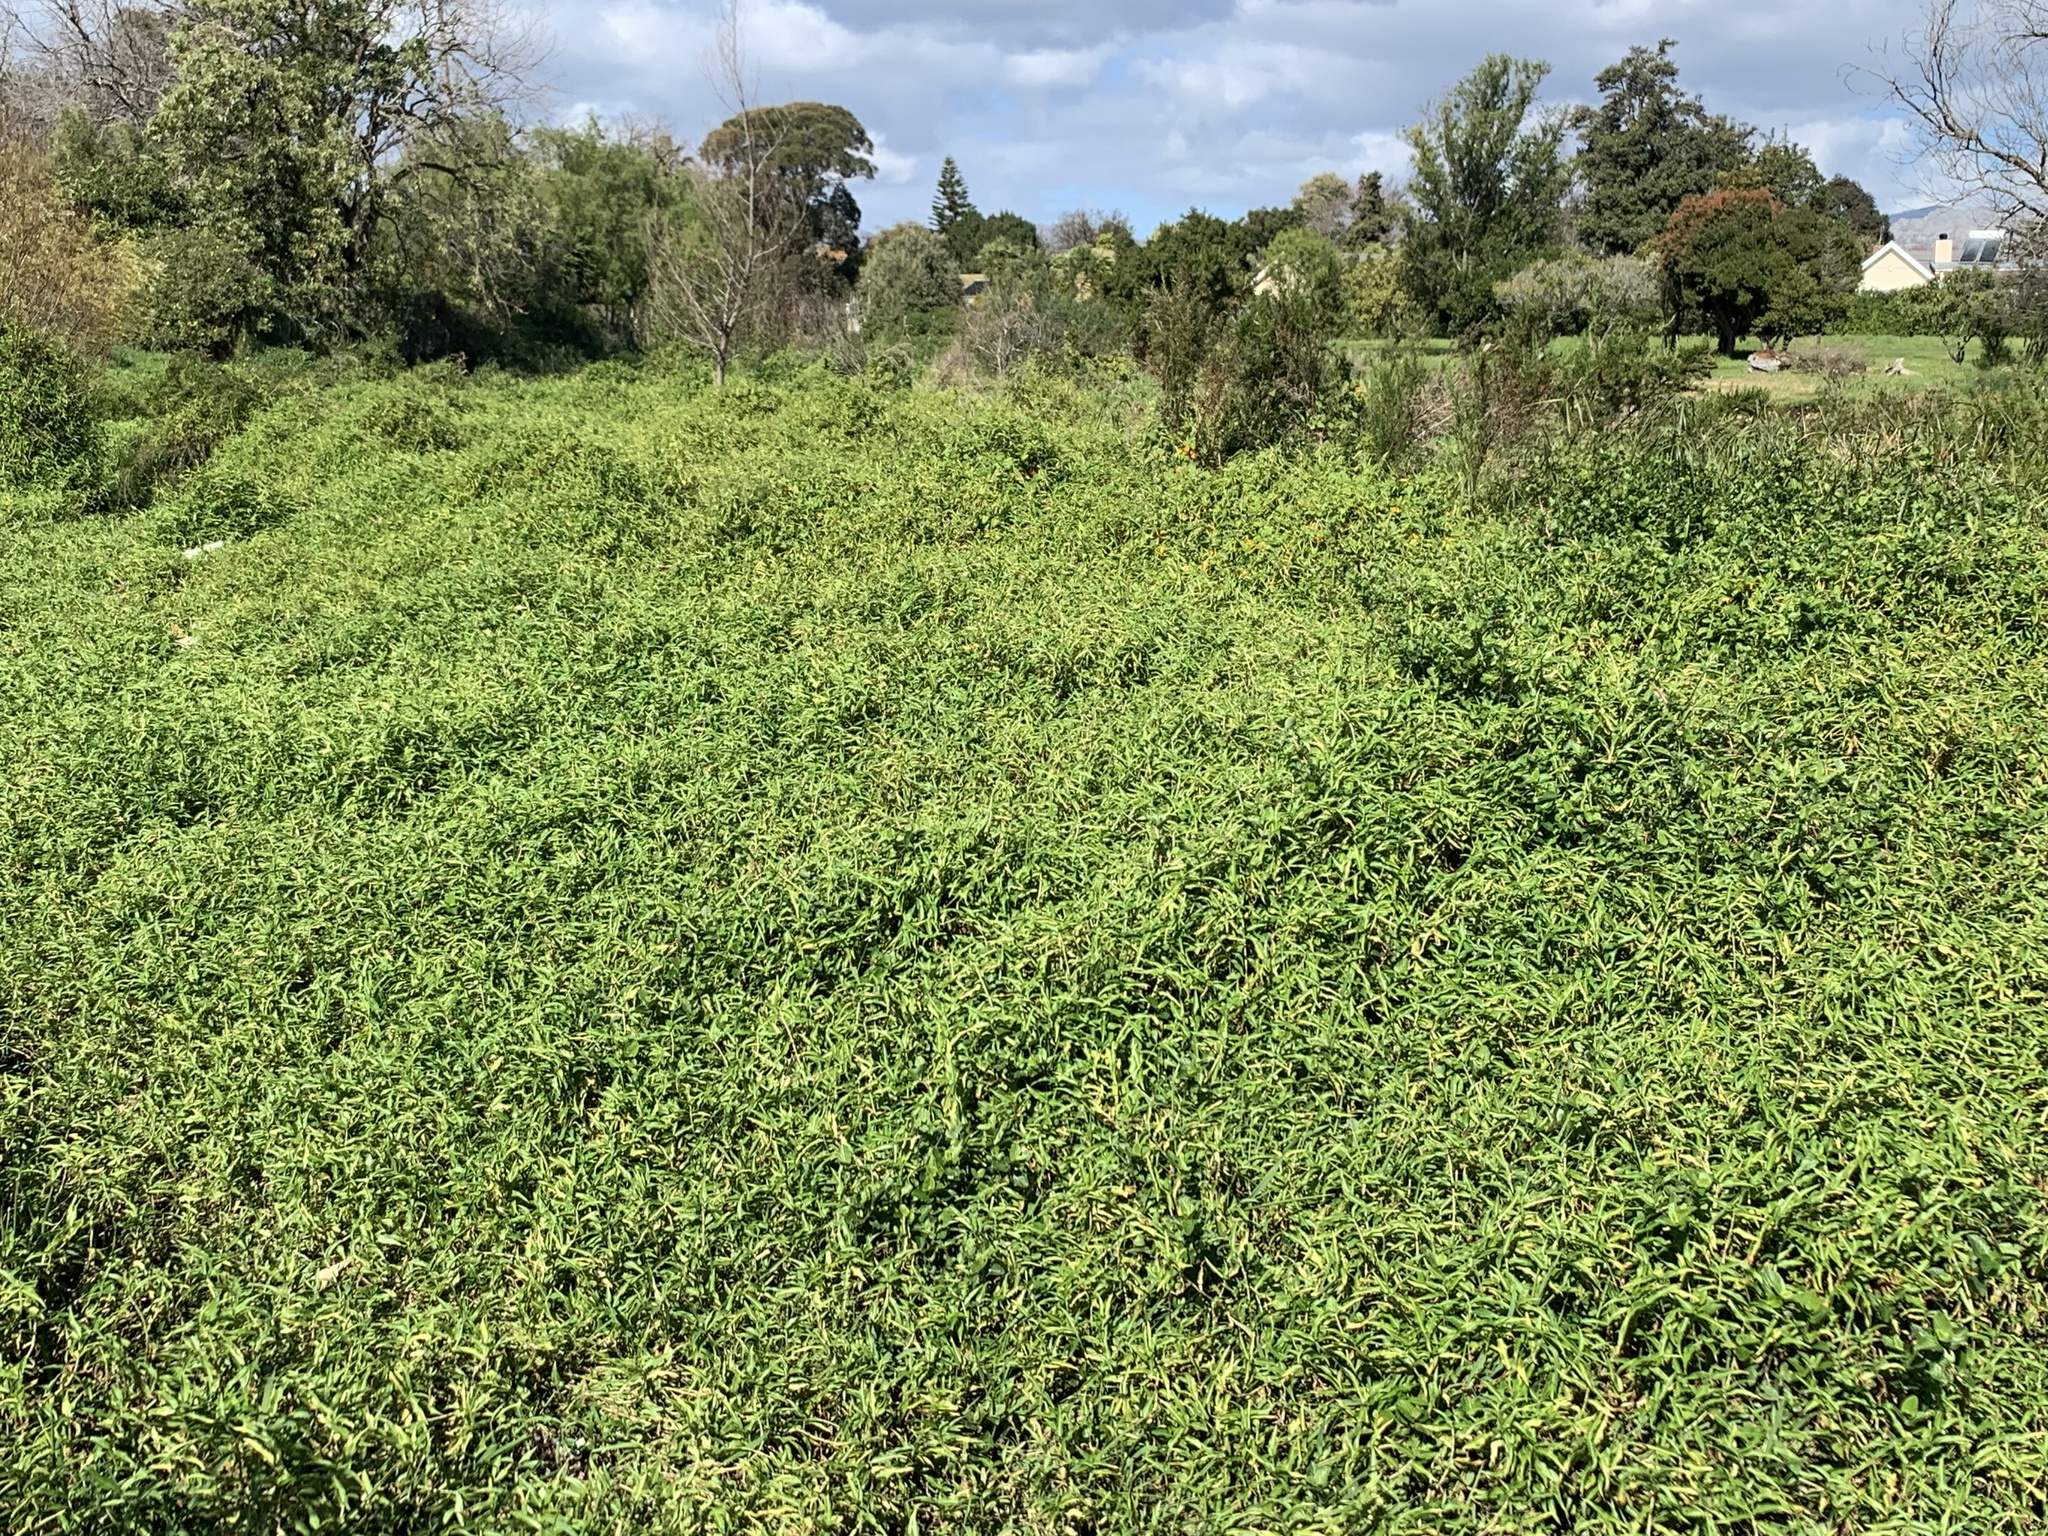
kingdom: Plantae
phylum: Tracheophyta
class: Liliopsida
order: Commelinales
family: Commelinaceae
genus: Commelina
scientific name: Commelina diffusa
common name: Climbing dayflower
